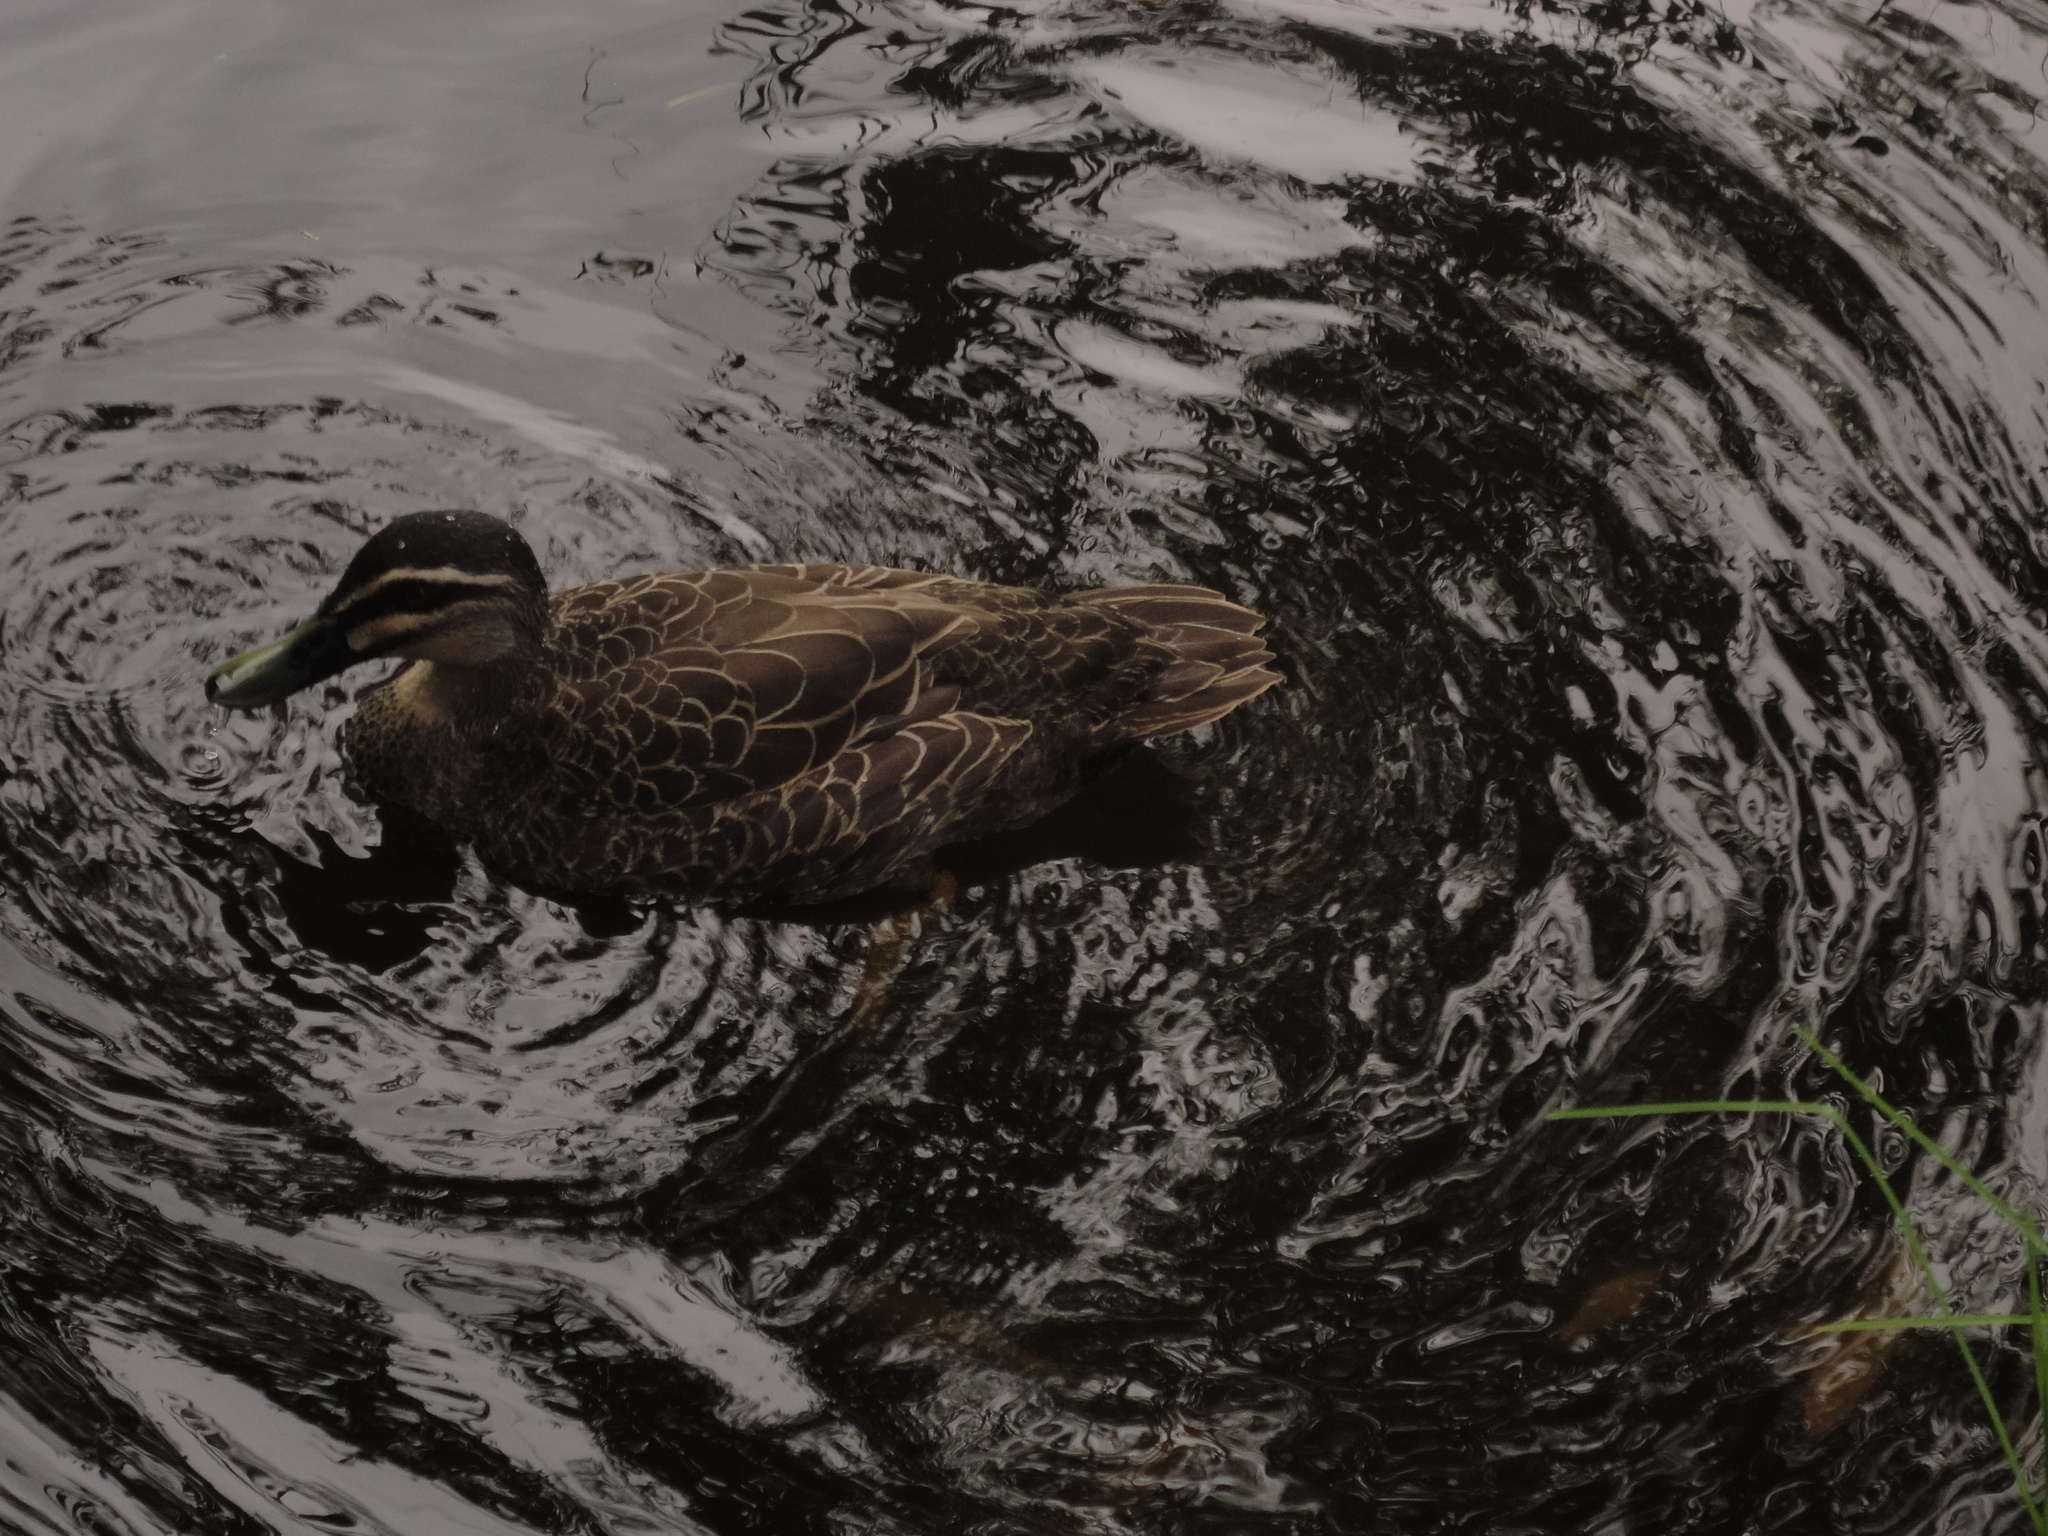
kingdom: Animalia
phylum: Chordata
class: Aves
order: Anseriformes
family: Anatidae
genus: Anas
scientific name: Anas superciliosa
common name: Pacific black duck
